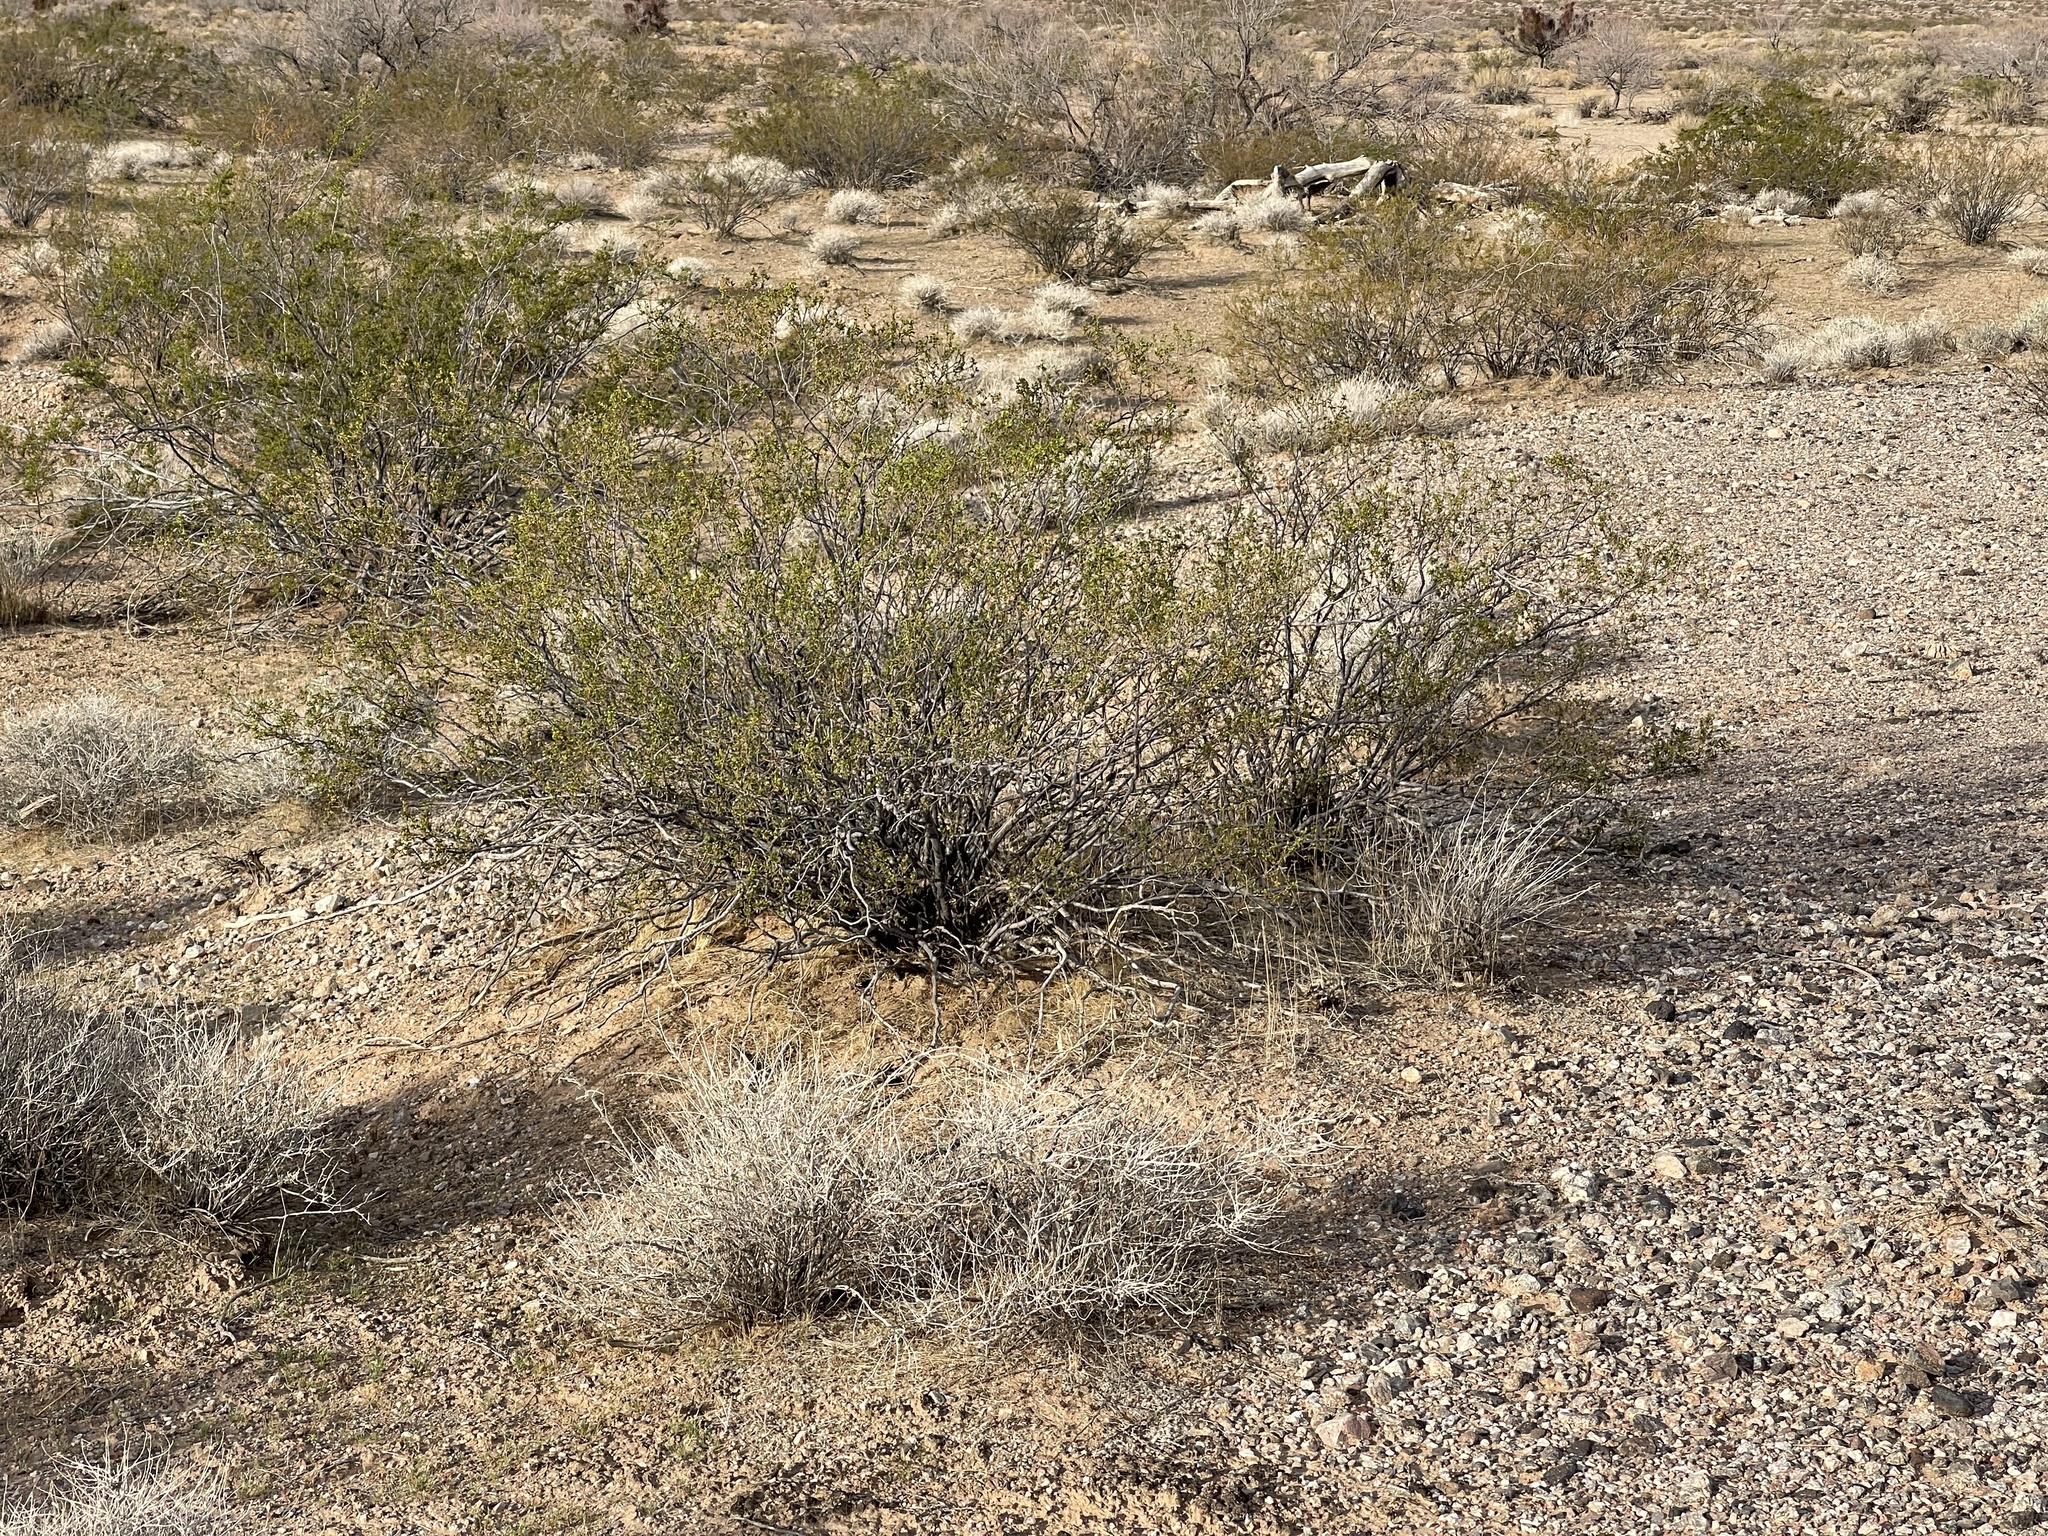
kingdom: Plantae
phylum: Tracheophyta
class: Magnoliopsida
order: Zygophyllales
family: Zygophyllaceae
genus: Larrea
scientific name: Larrea tridentata
